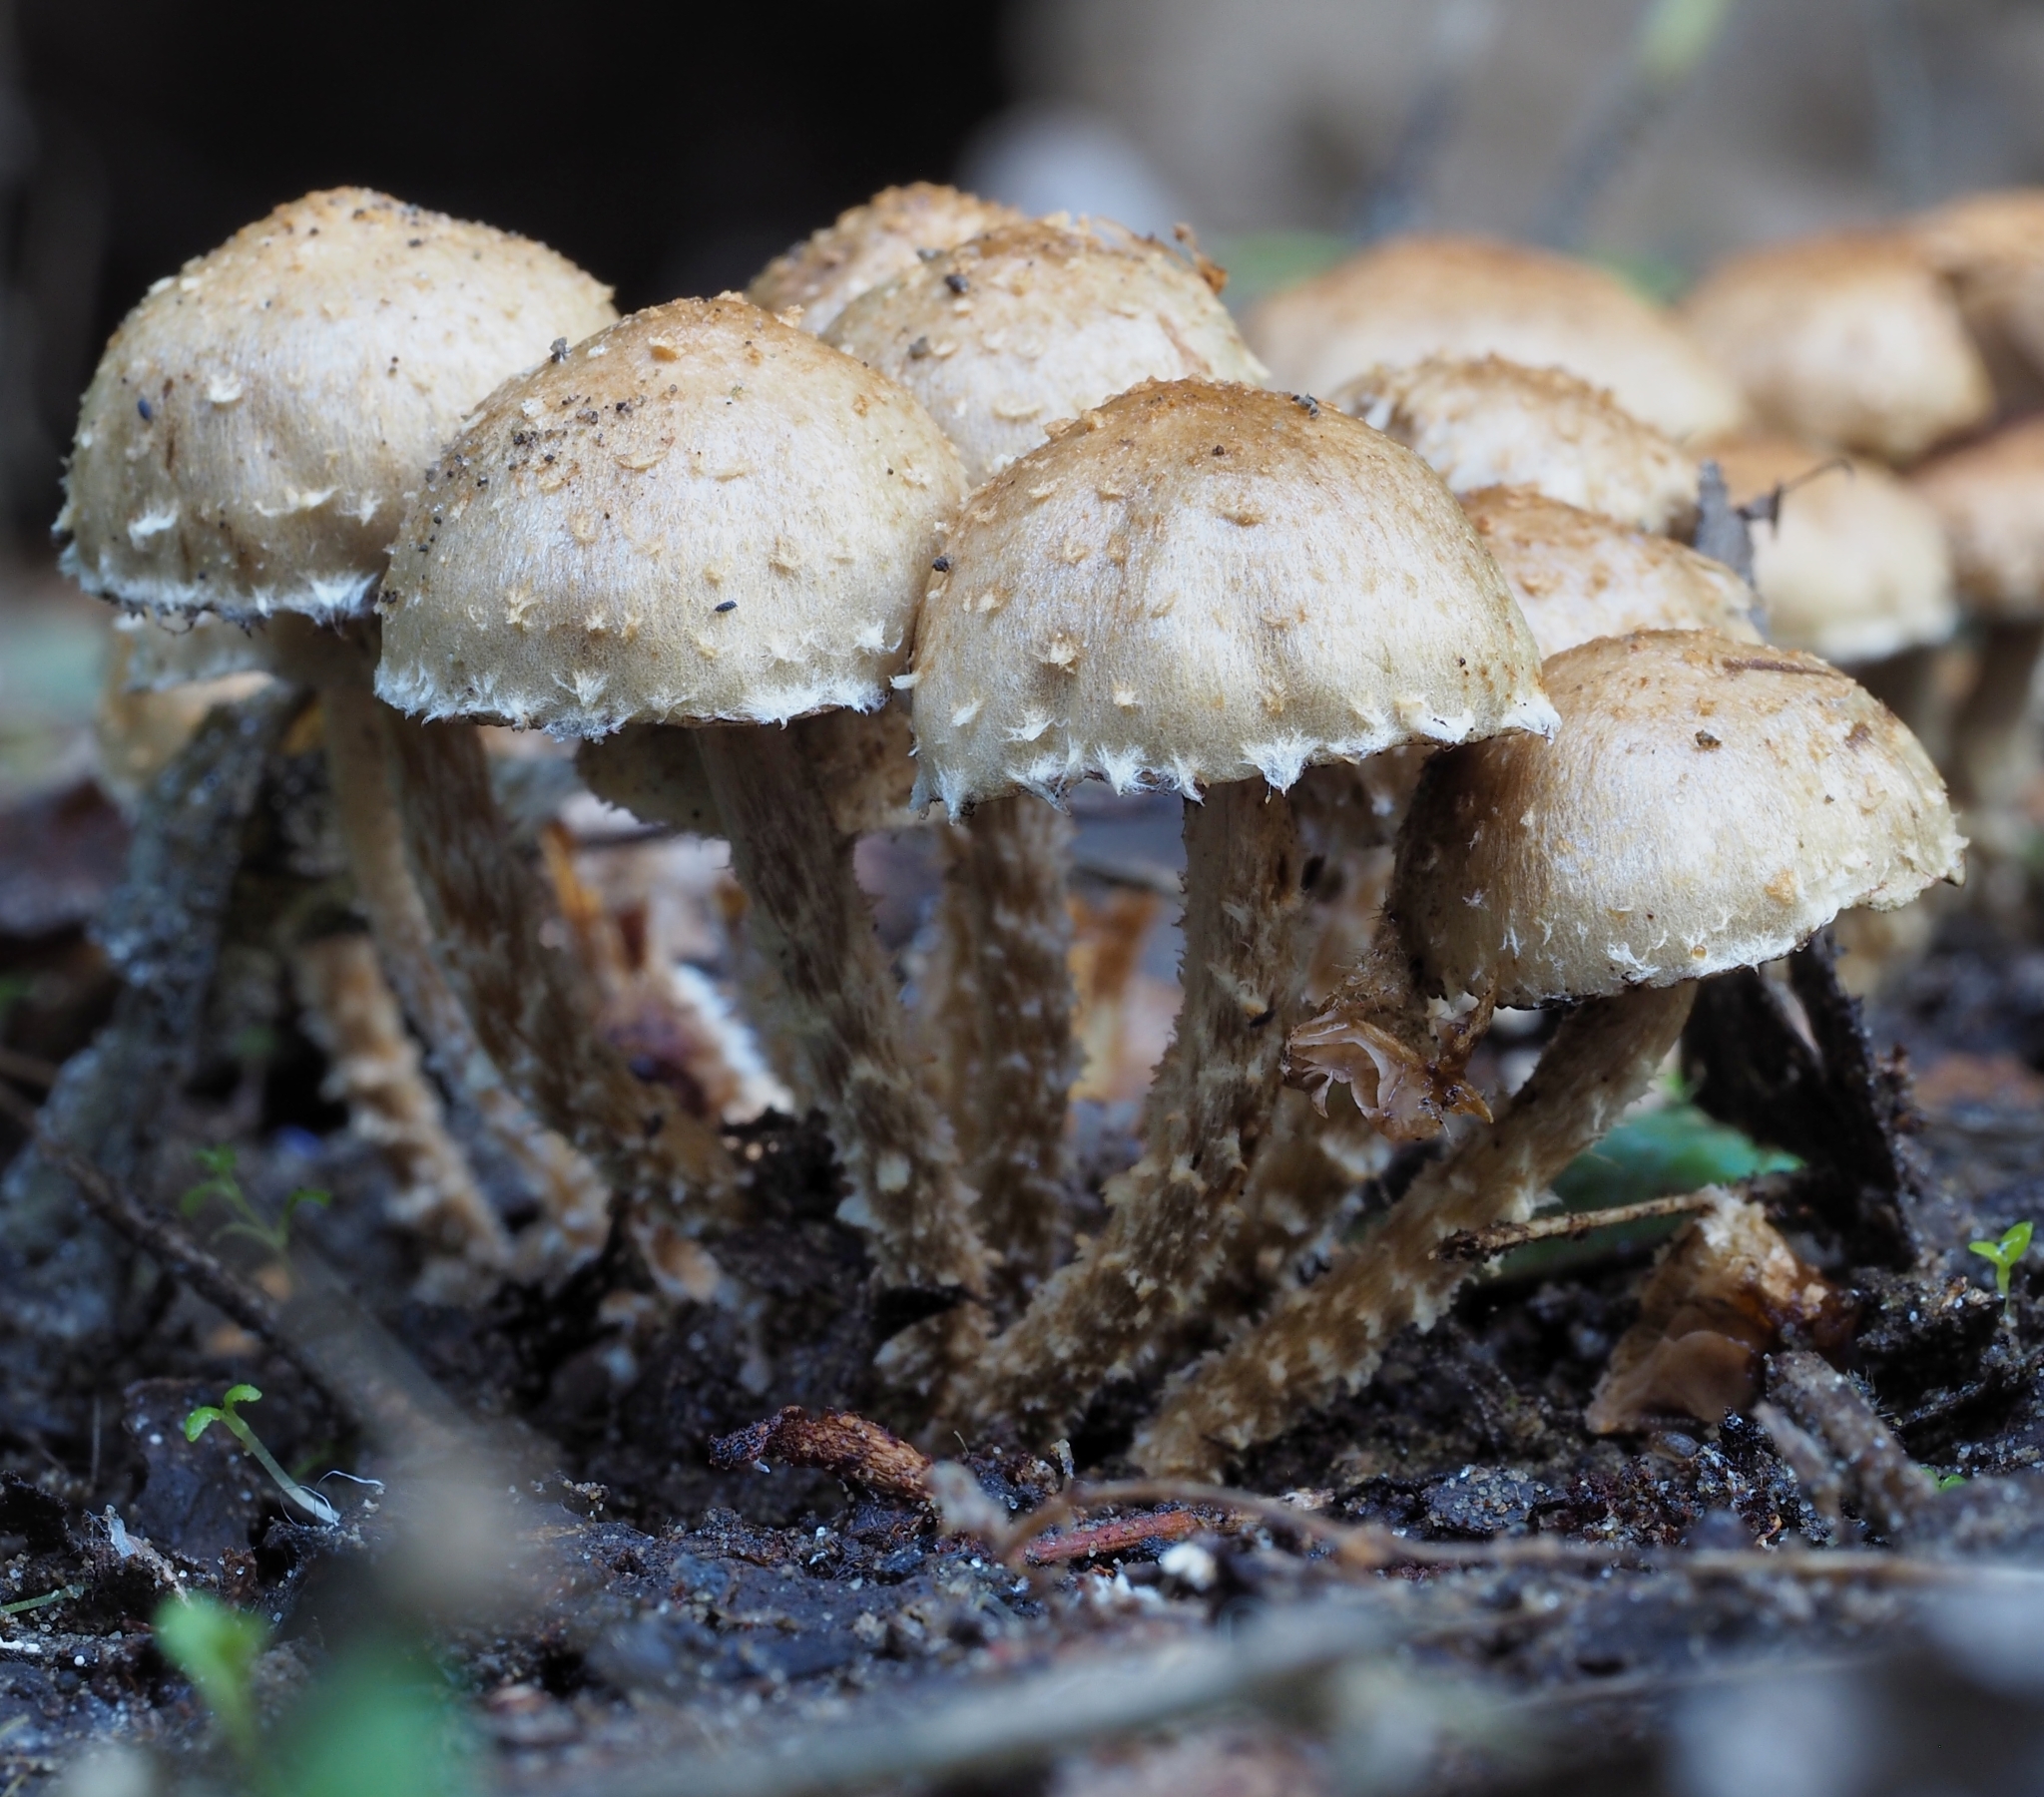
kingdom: Fungi
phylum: Basidiomycota
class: Agaricomycetes
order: Agaricales
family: Strophariaceae
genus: Pholiota
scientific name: Pholiota subflammans
